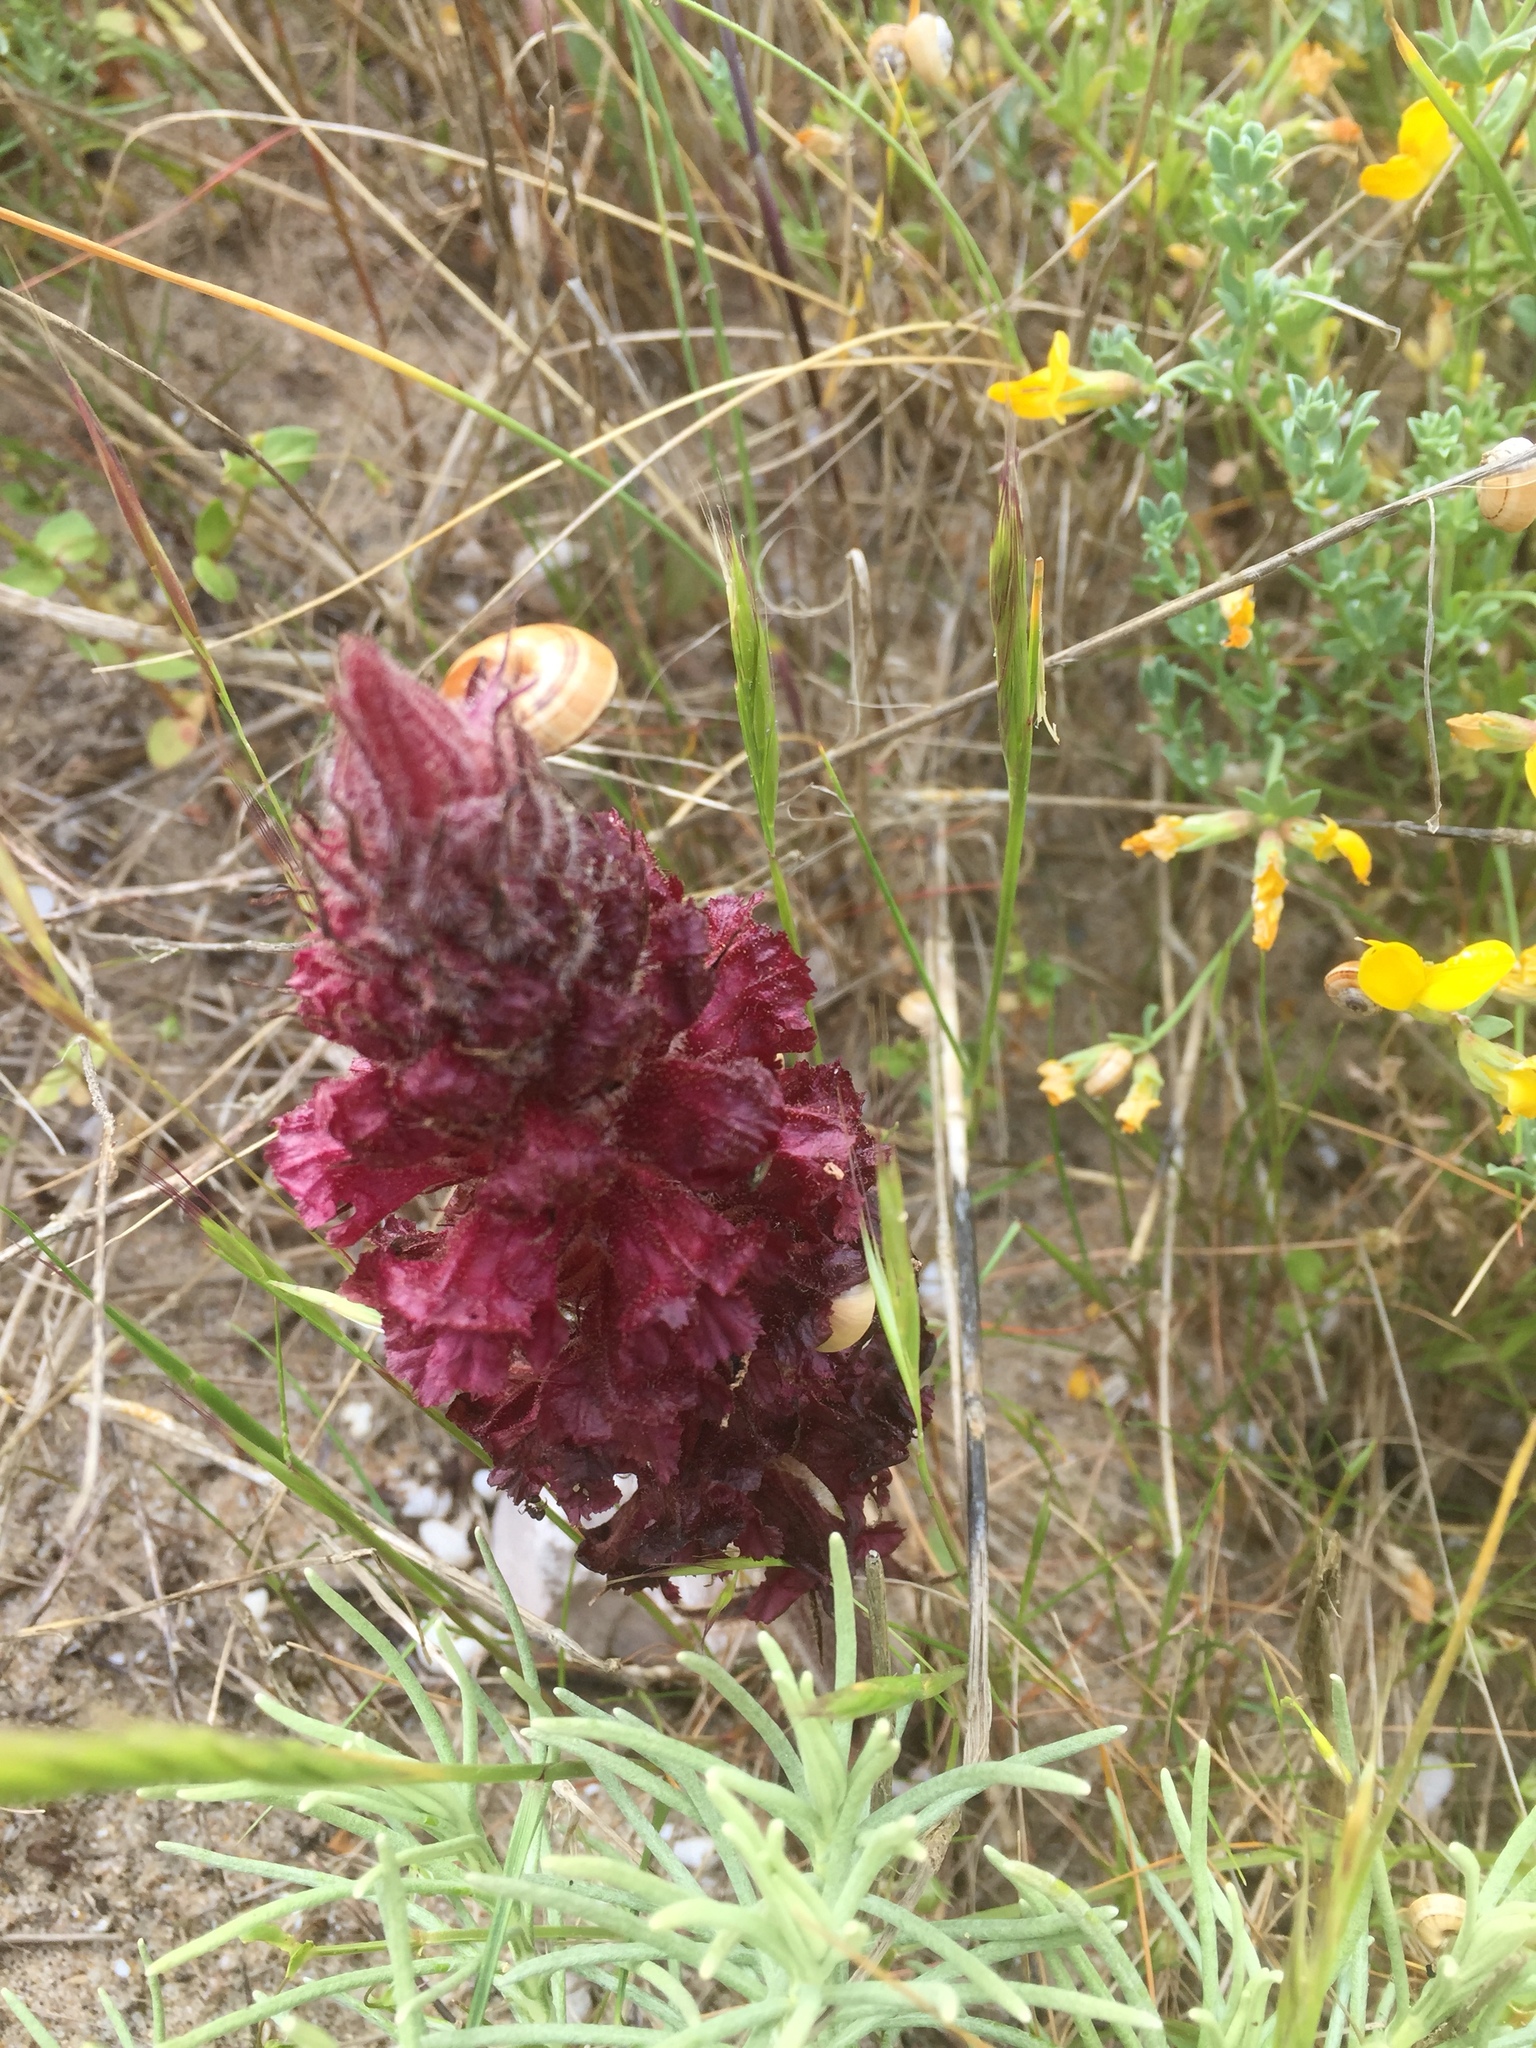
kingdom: Plantae
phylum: Tracheophyta
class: Magnoliopsida
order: Lamiales
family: Orobanchaceae
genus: Orobanche
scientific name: Orobanche foetida
